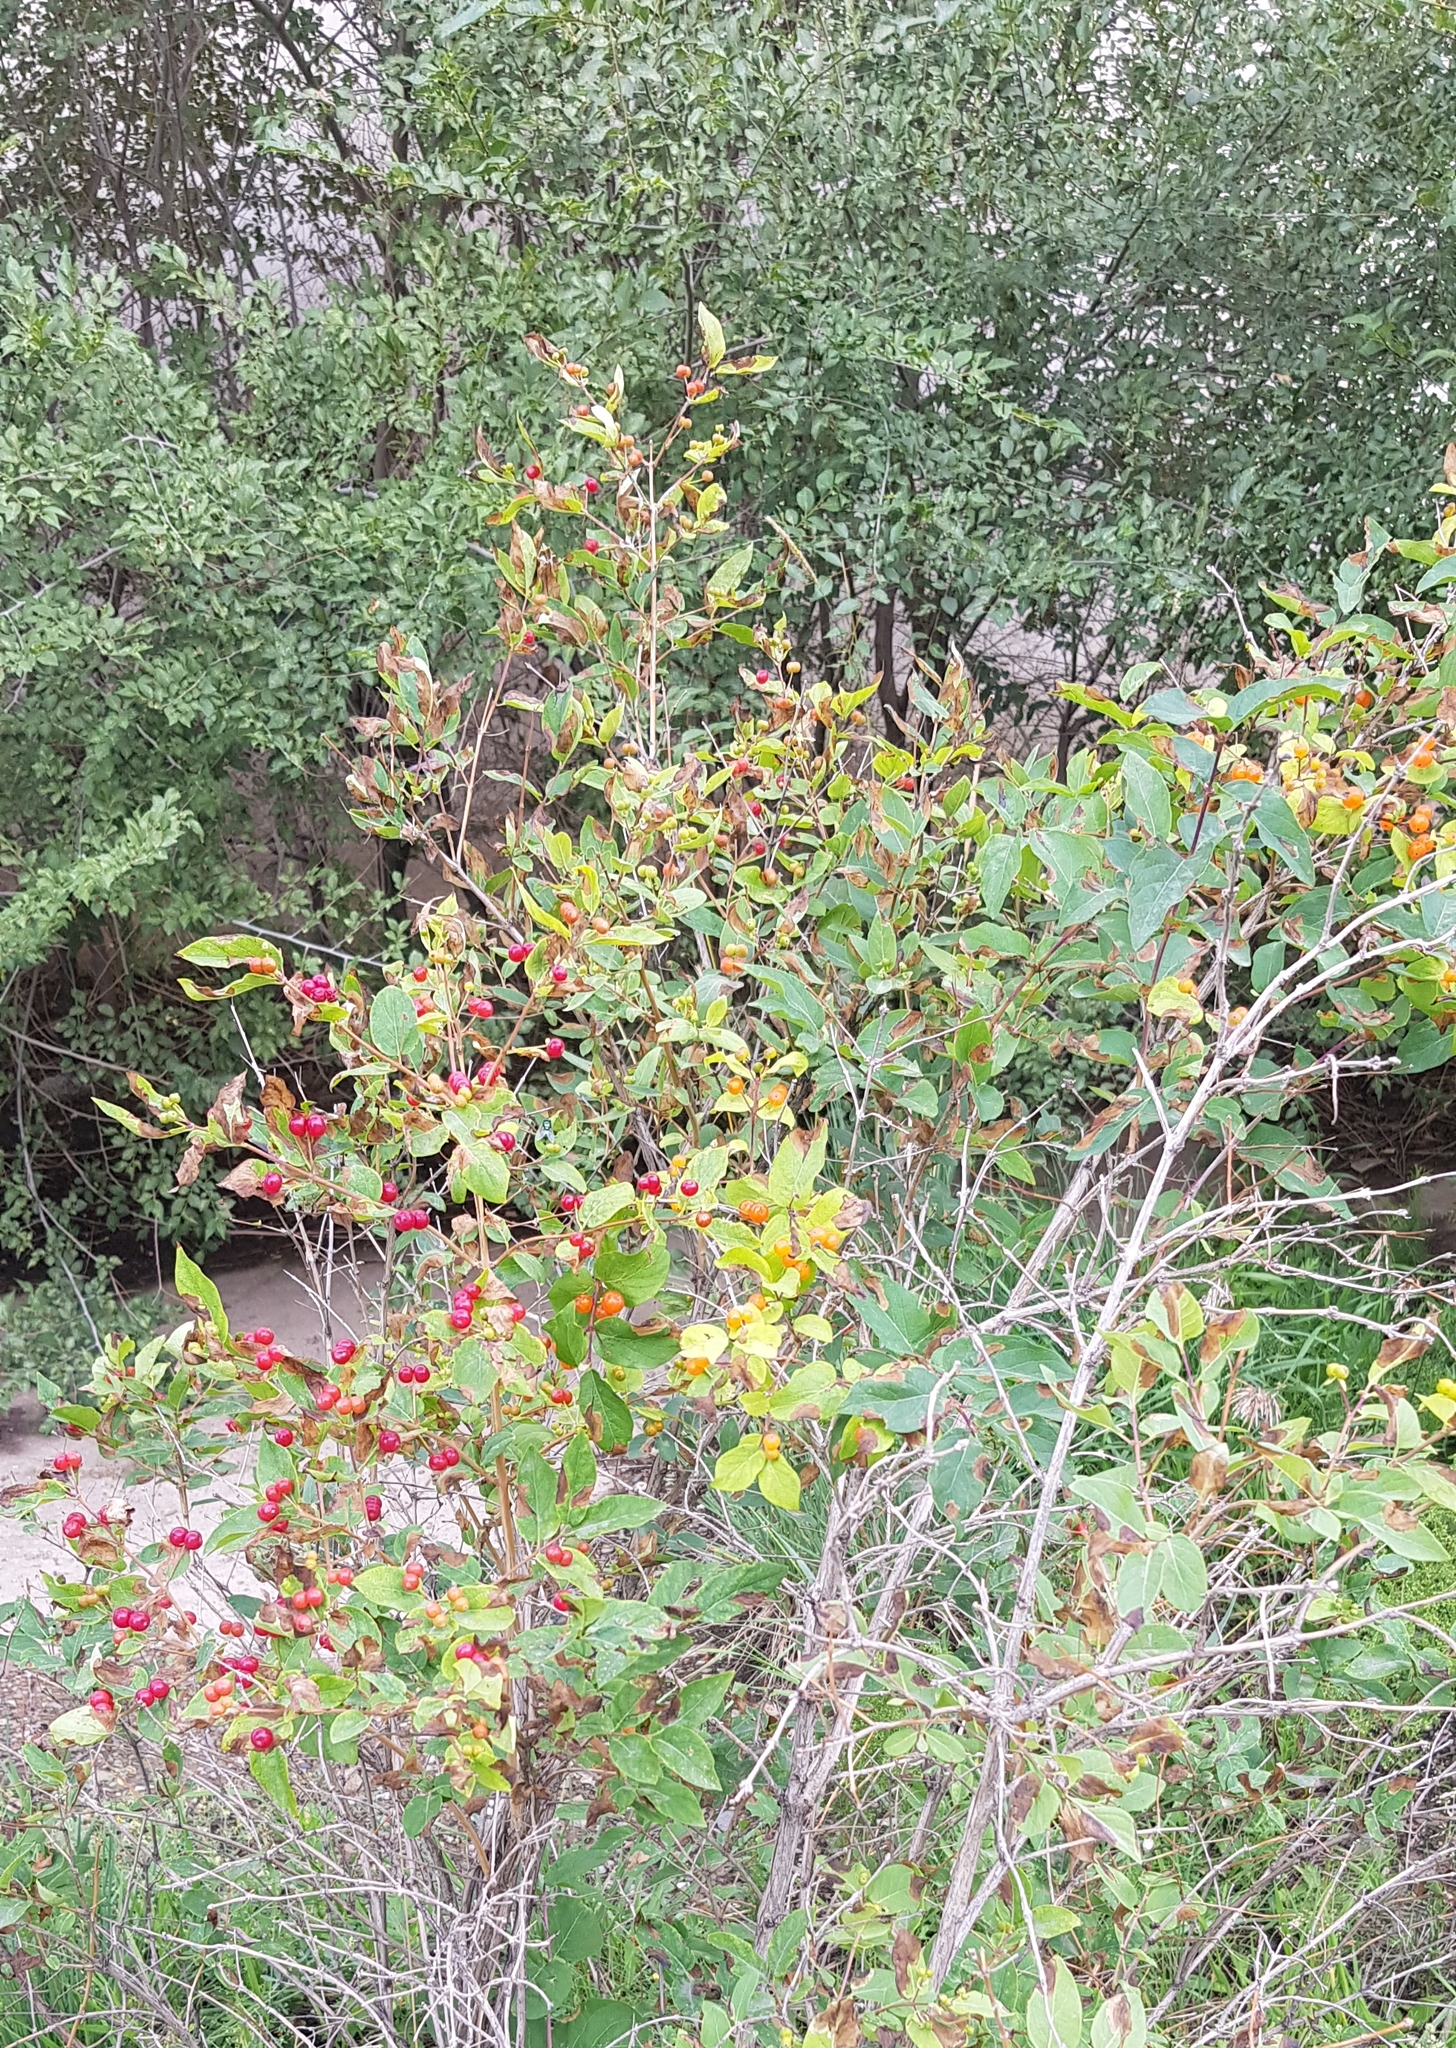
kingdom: Plantae
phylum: Tracheophyta
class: Magnoliopsida
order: Dipsacales
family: Caprifoliaceae
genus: Lonicera
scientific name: Lonicera tatarica
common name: Tatarian honeysuckle
